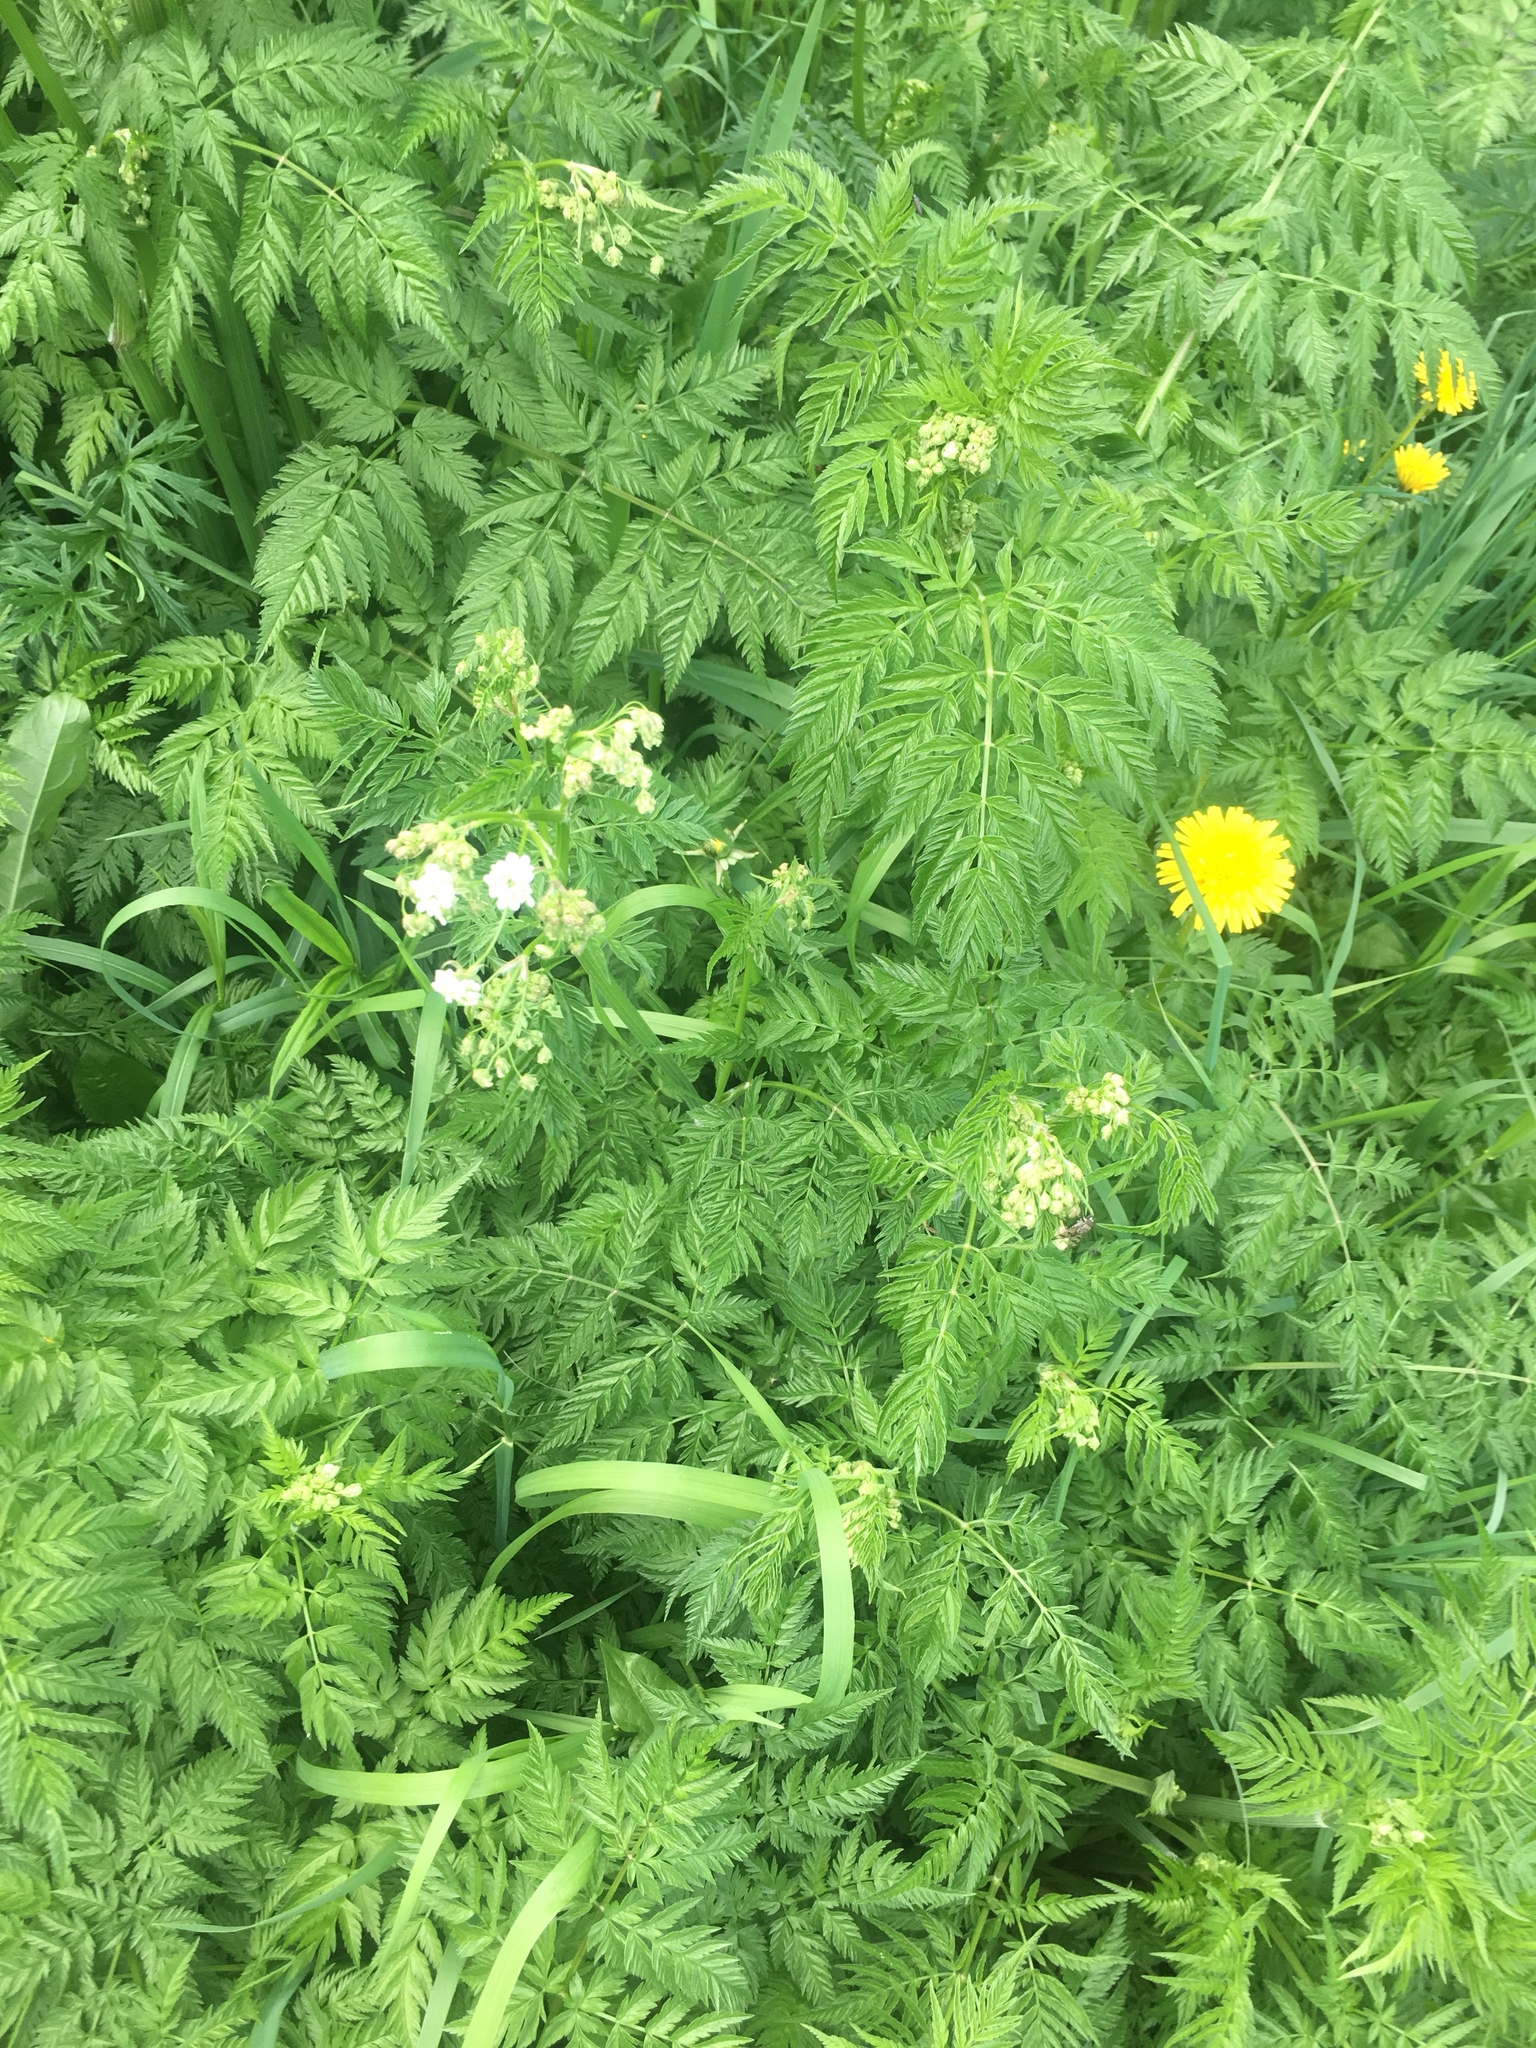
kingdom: Plantae
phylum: Tracheophyta
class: Magnoliopsida
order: Apiales
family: Apiaceae
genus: Anthriscus
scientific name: Anthriscus sylvestris
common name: Cow parsley
